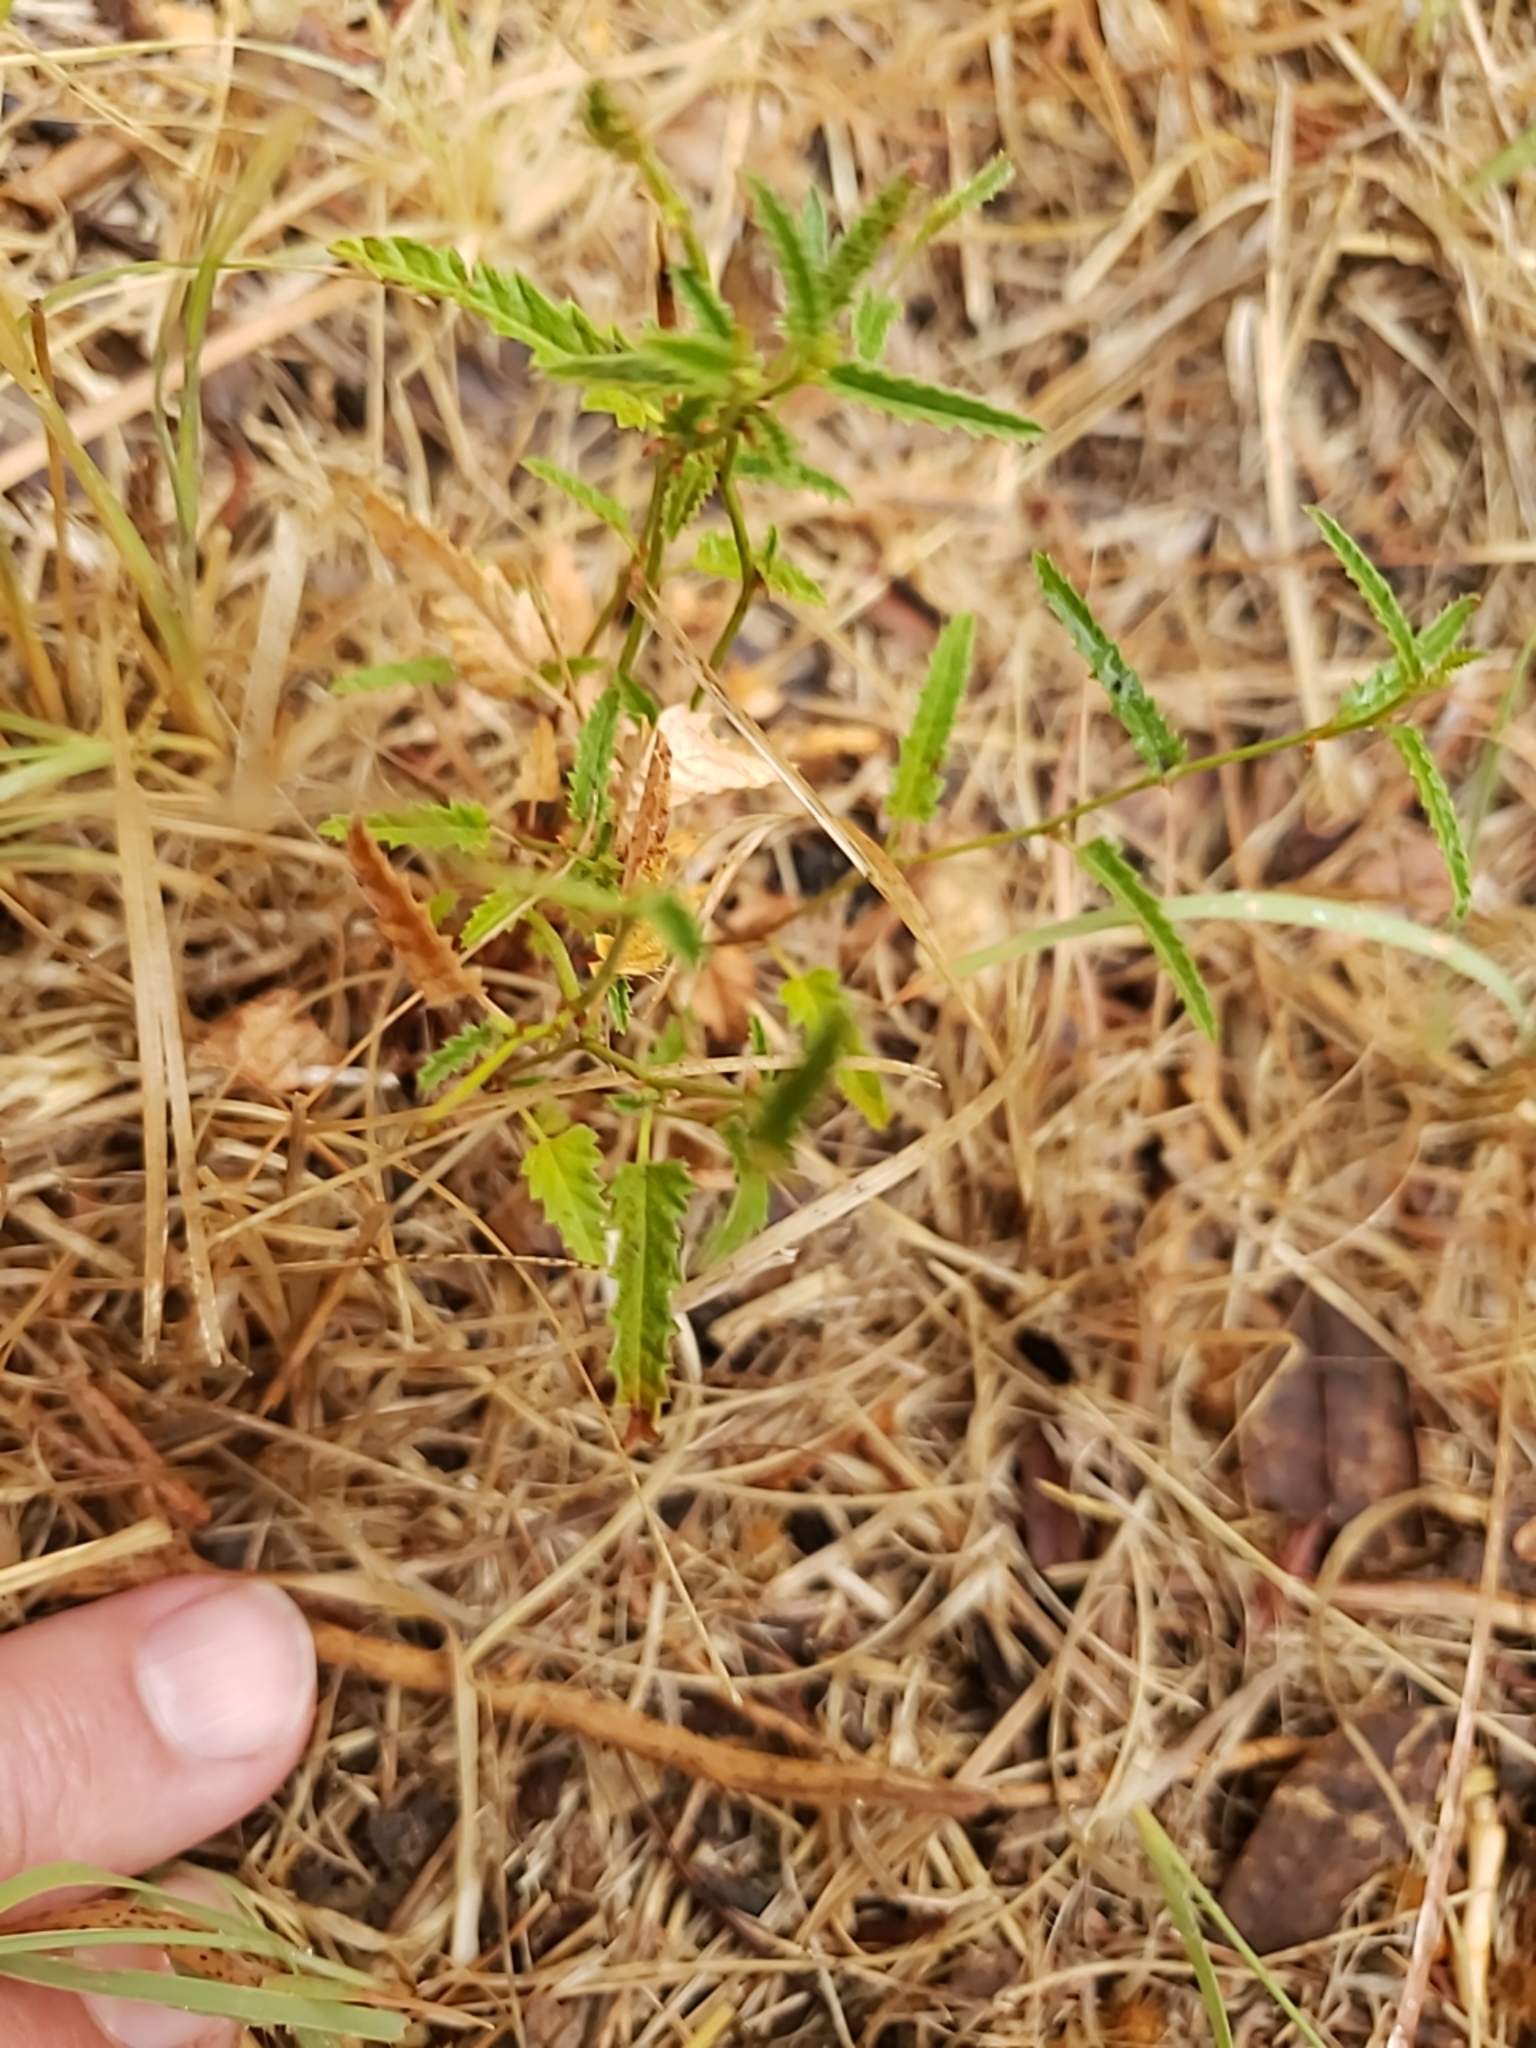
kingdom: Plantae
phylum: Tracheophyta
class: Magnoliopsida
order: Malpighiales
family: Euphorbiaceae
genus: Tragia
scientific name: Tragia ramosa
